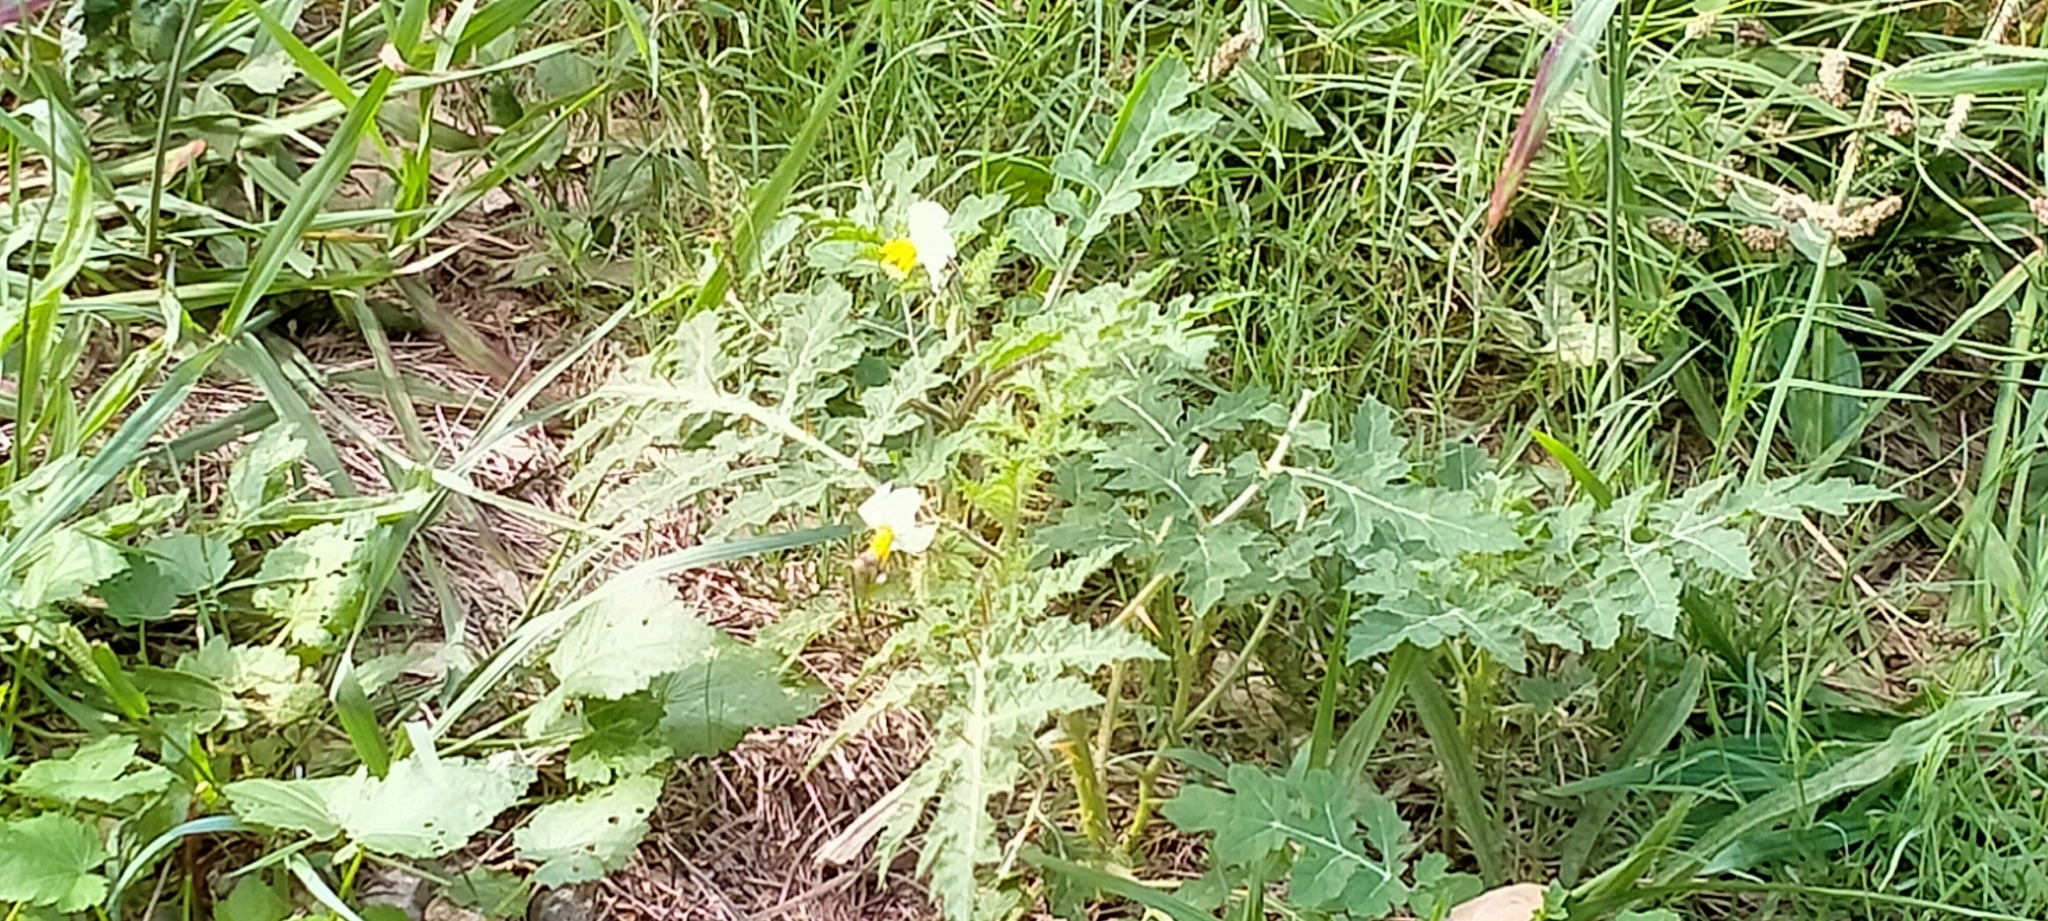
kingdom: Plantae
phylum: Tracheophyta
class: Magnoliopsida
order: Solanales
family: Solanaceae
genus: Solanum
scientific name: Solanum sisymbriifolium
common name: Red buffalo-bur
